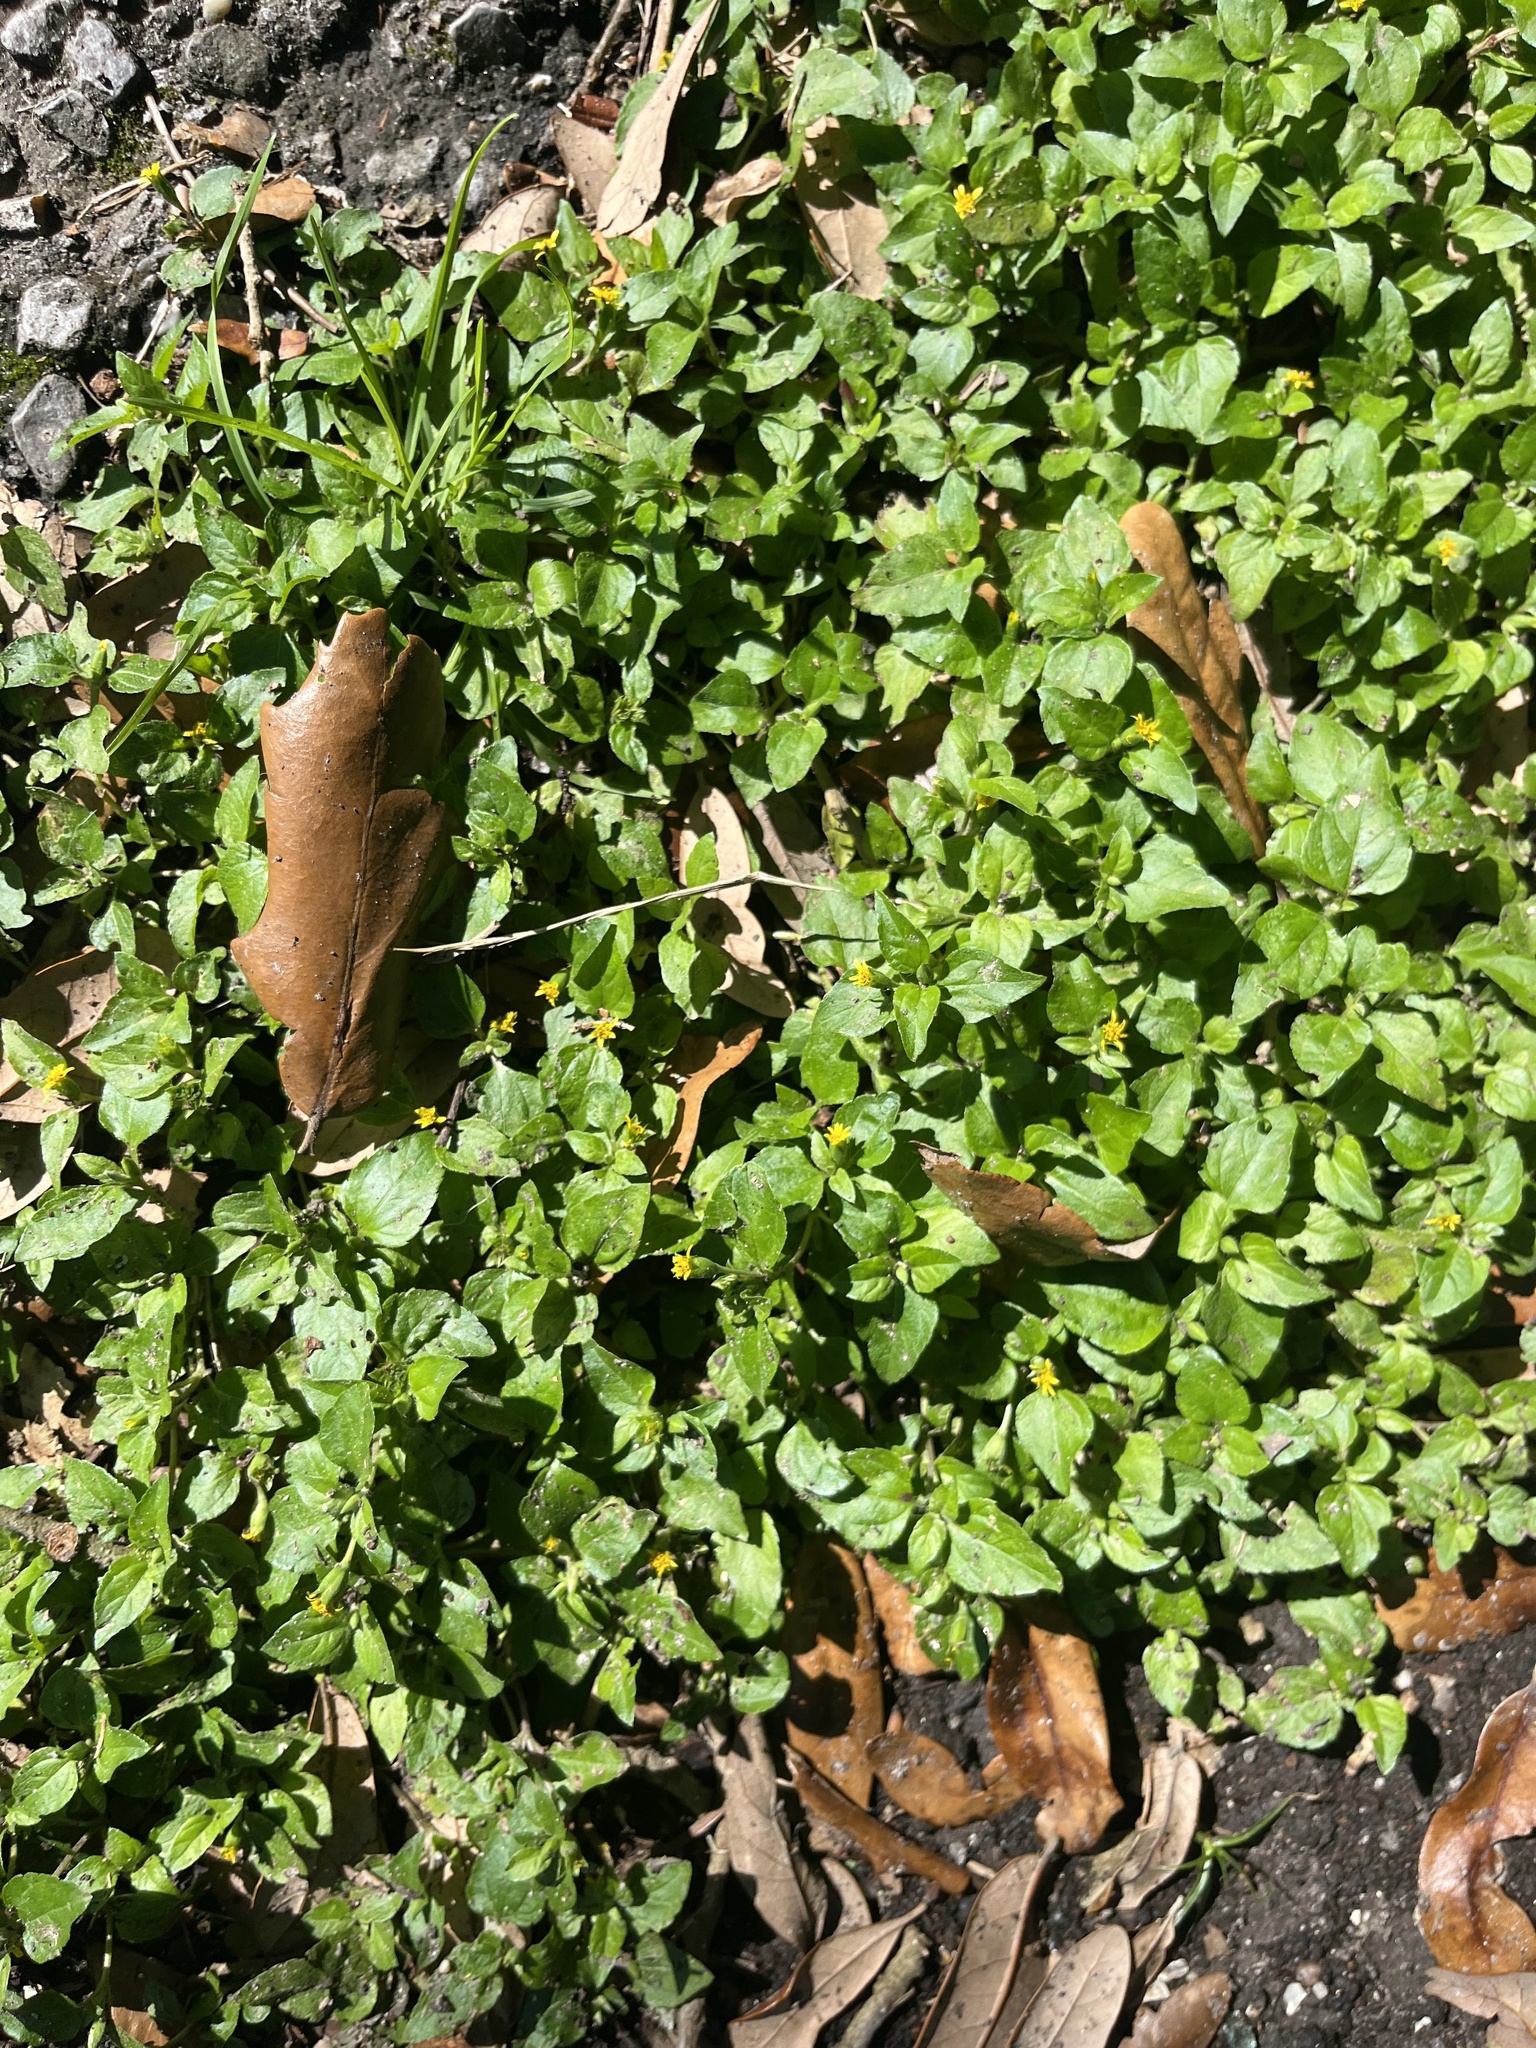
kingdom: Plantae
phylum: Tracheophyta
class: Magnoliopsida
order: Asterales
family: Asteraceae
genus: Calyptocarpus
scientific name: Calyptocarpus vialis
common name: Straggler daisy
